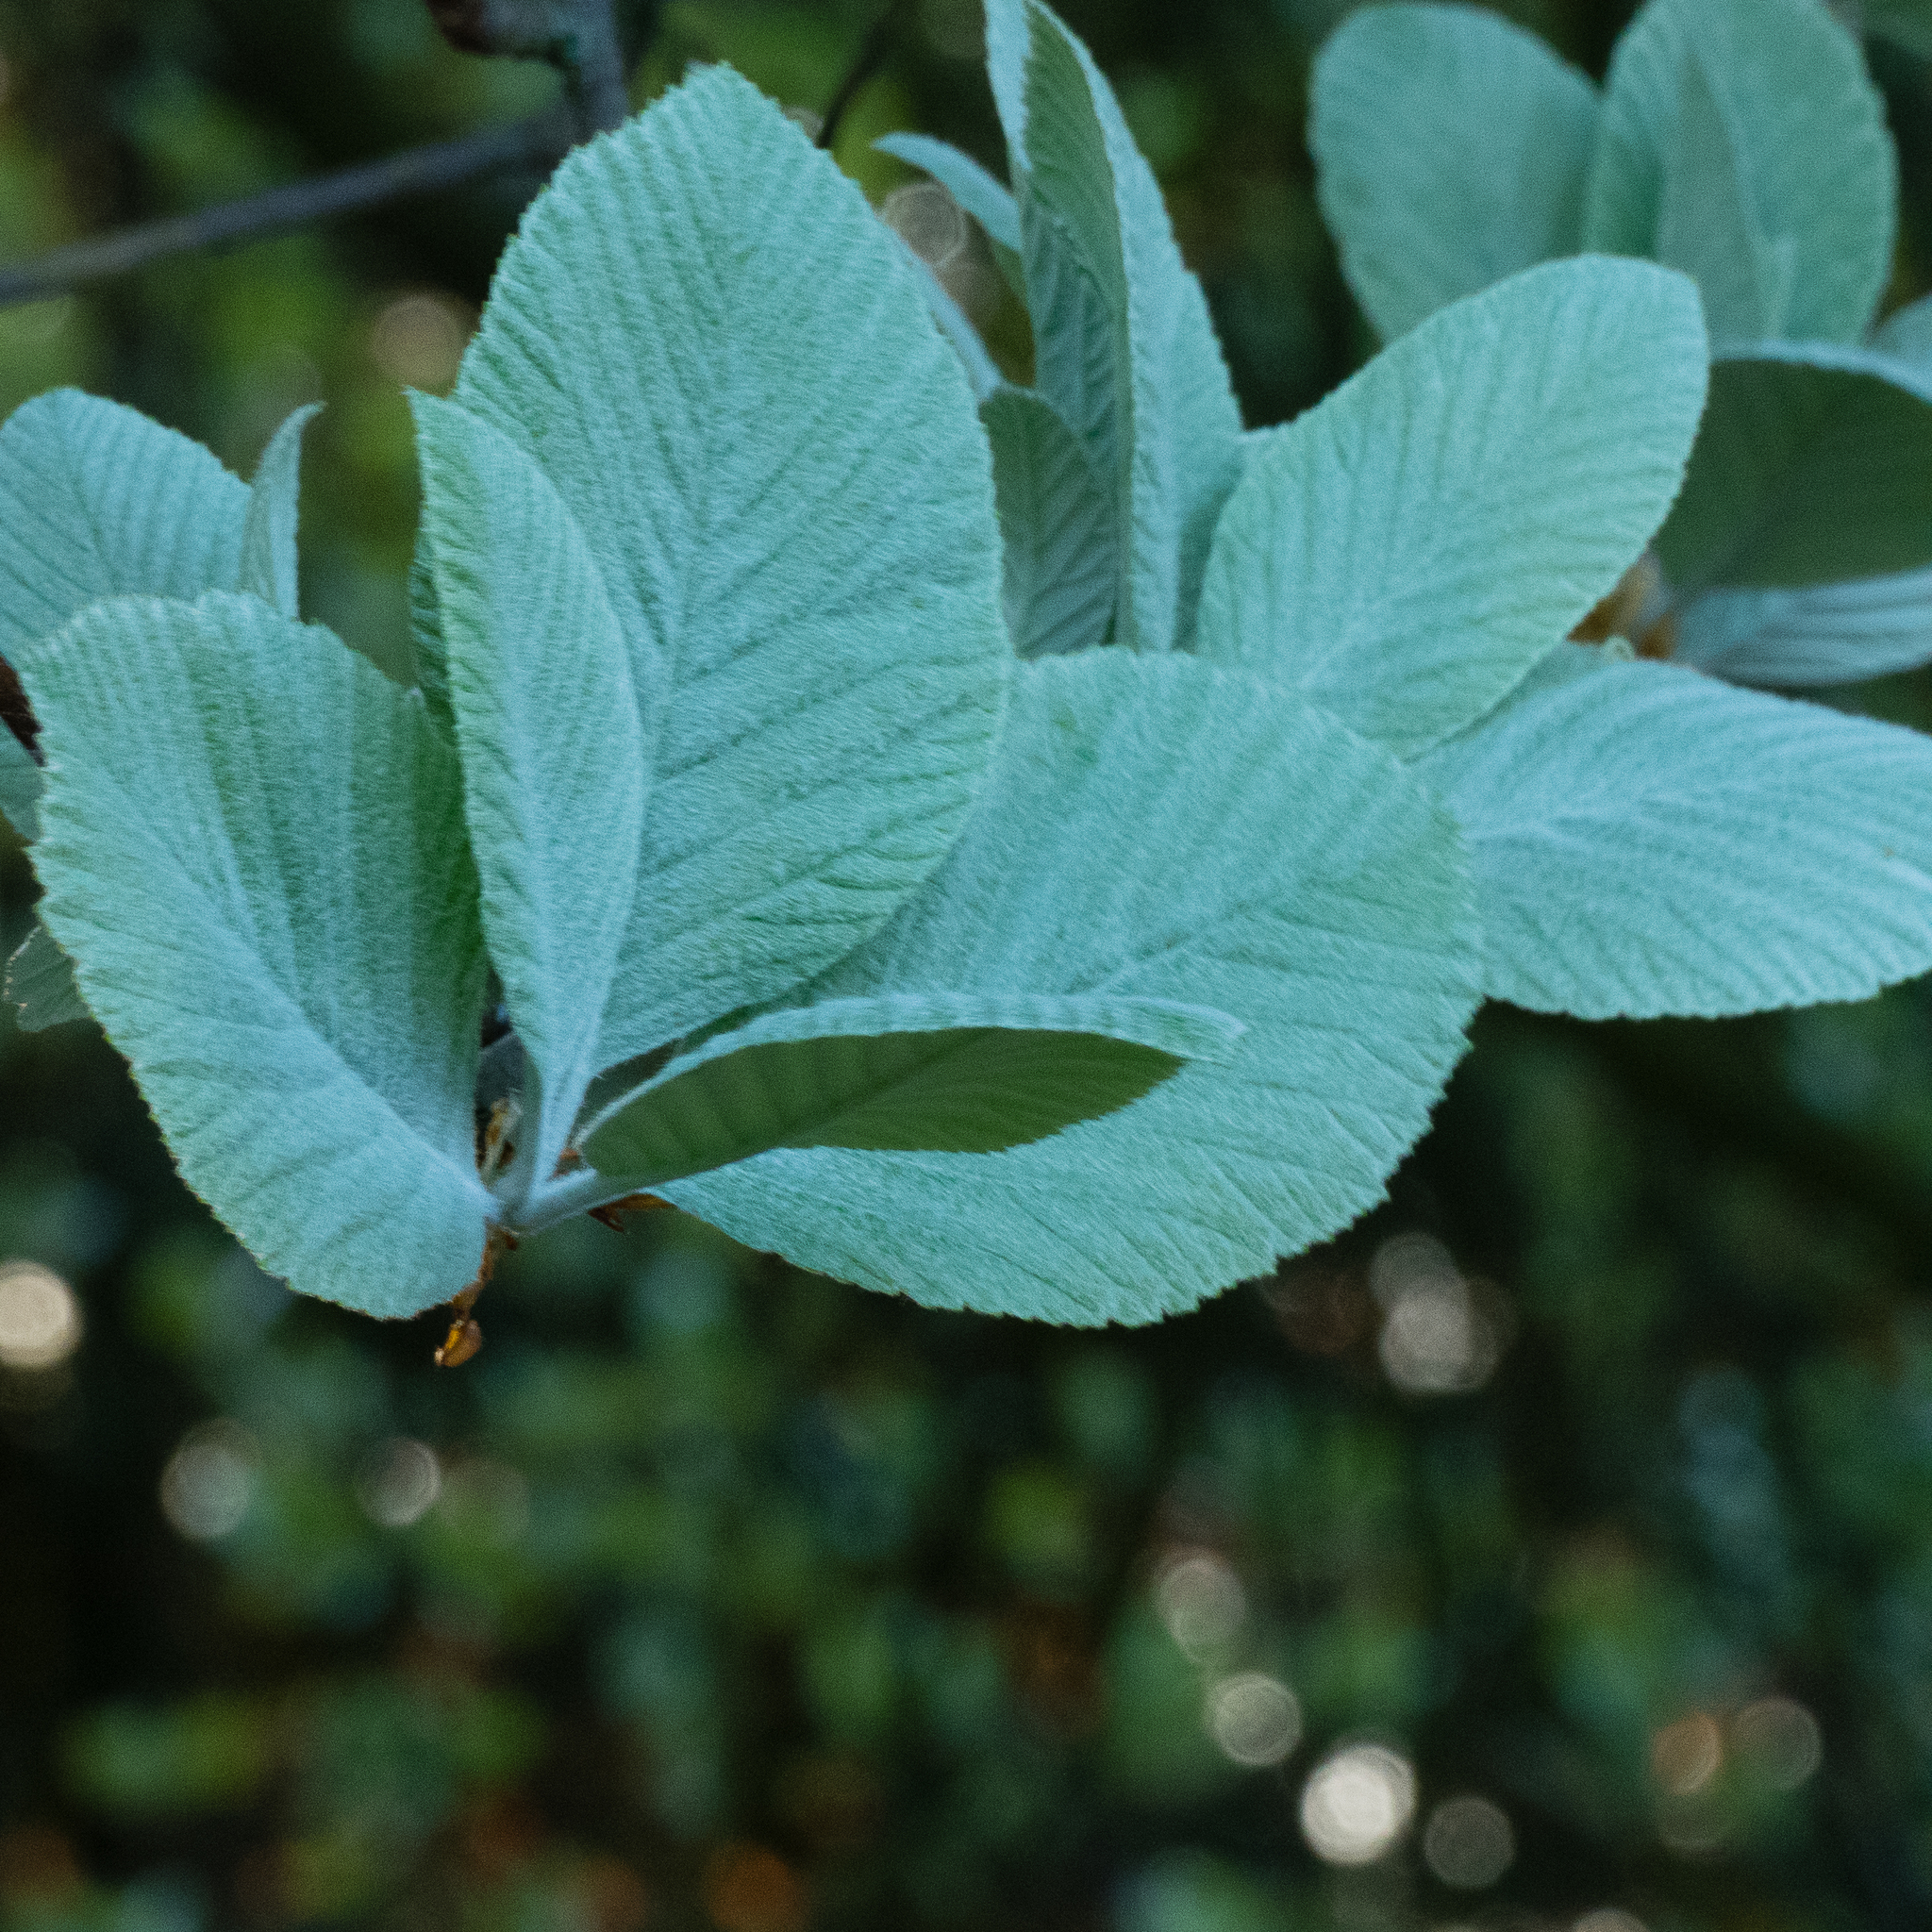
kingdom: Plantae
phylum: Tracheophyta
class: Magnoliopsida
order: Rosales
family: Rosaceae
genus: Aria
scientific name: Aria edulis
